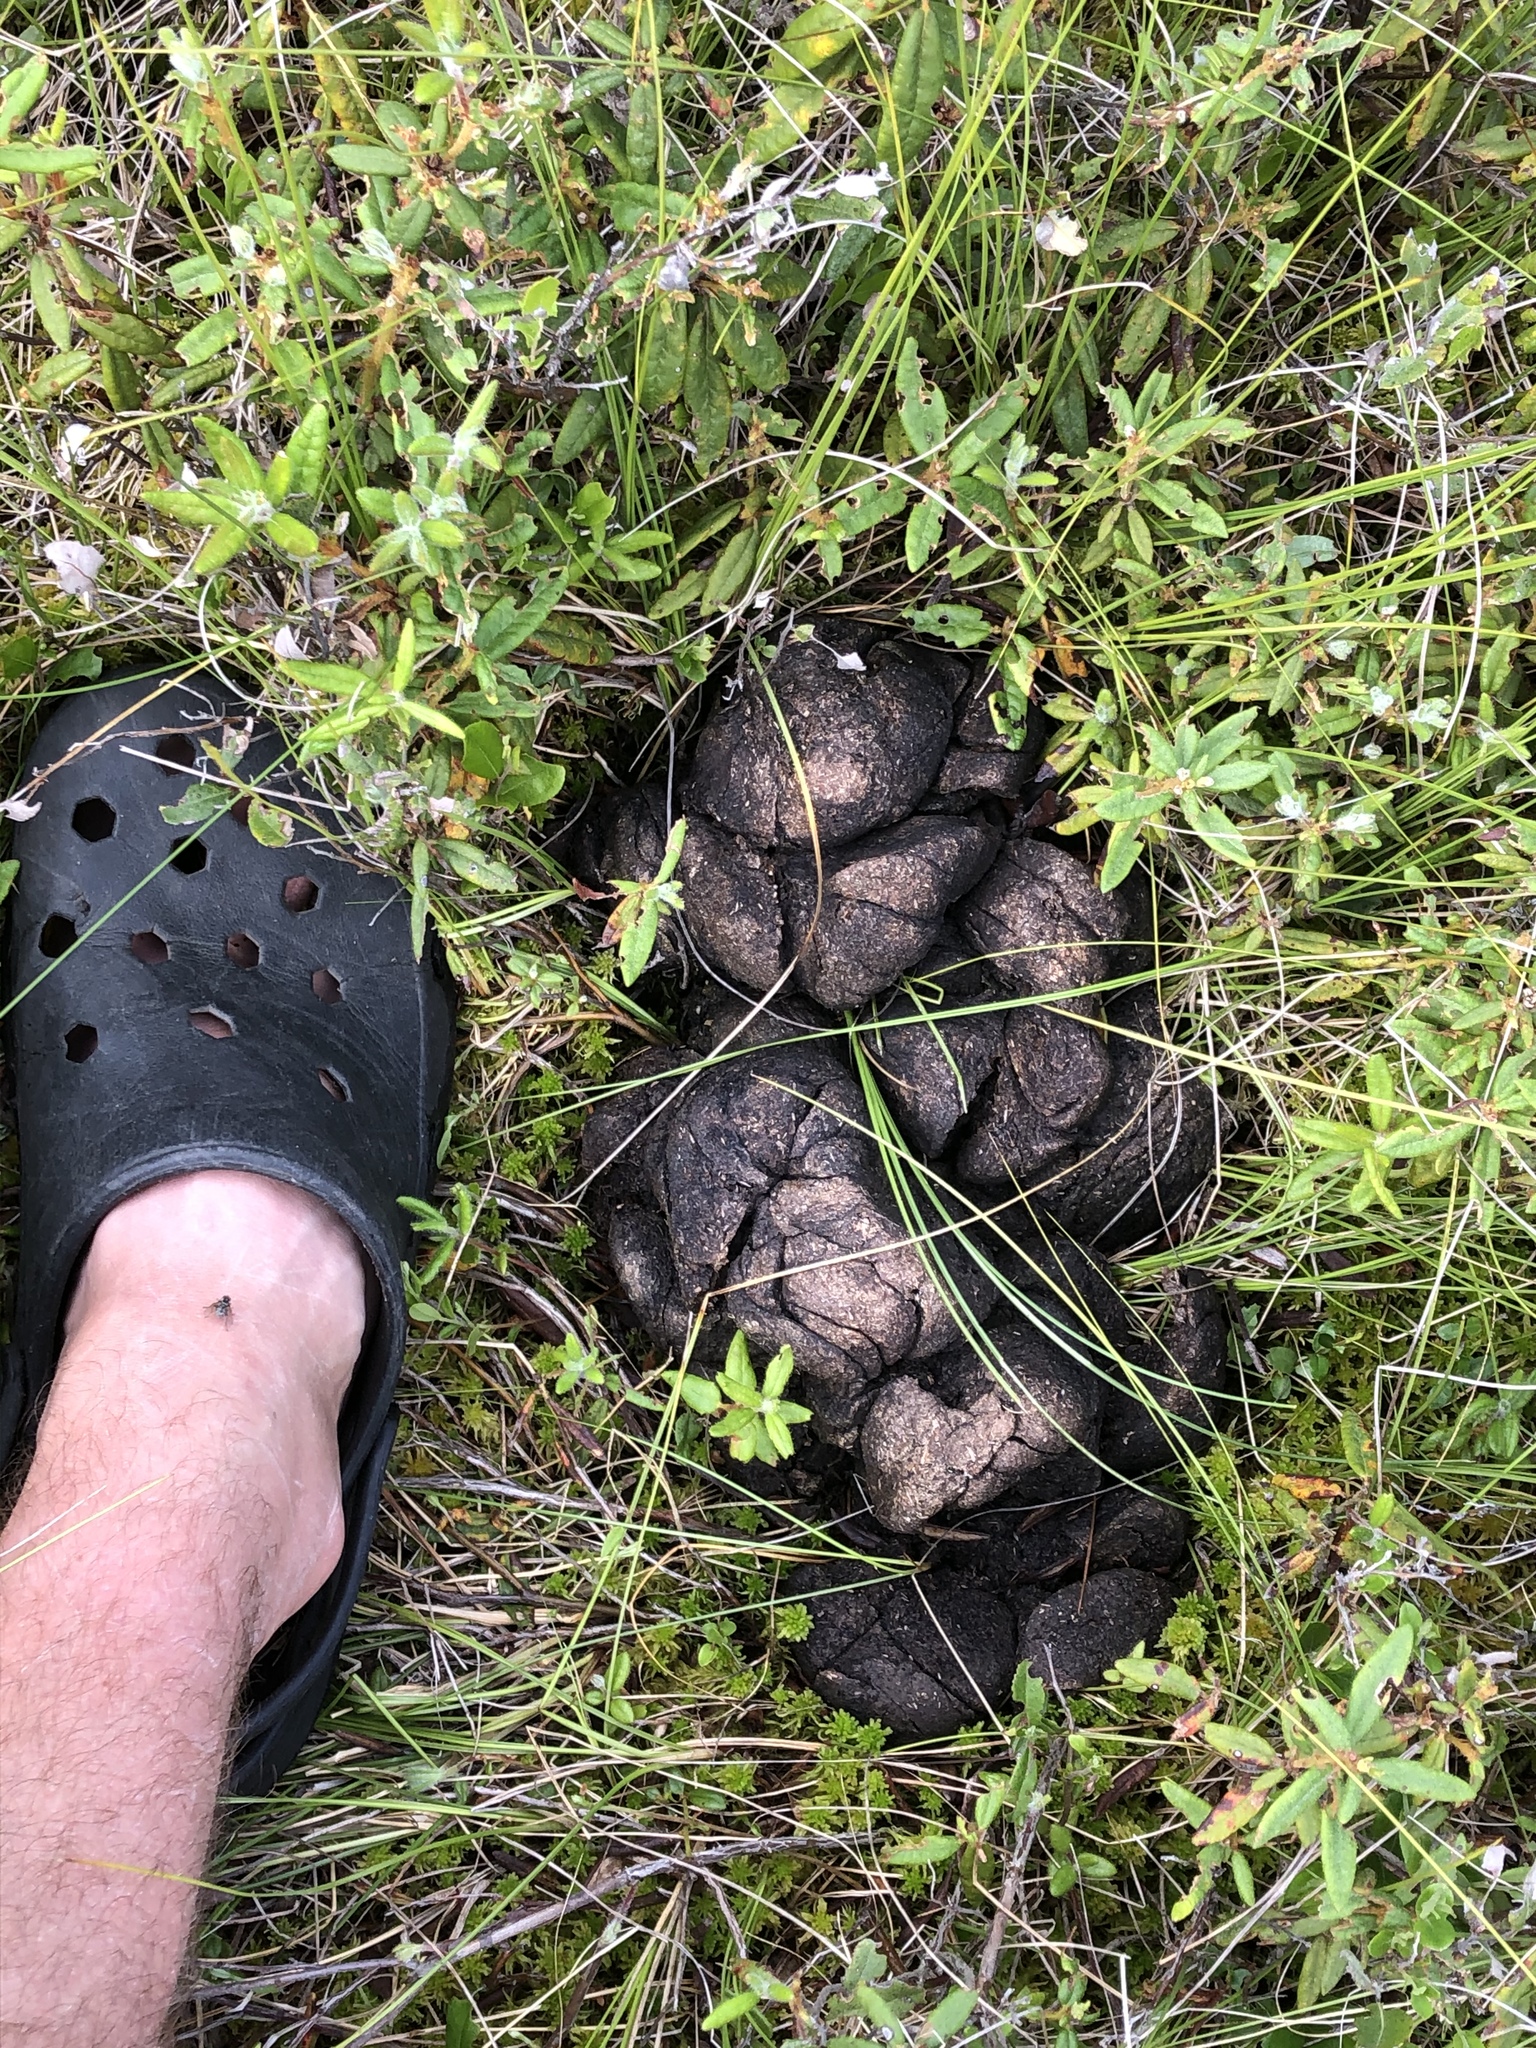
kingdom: Animalia
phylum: Chordata
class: Mammalia
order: Artiodactyla
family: Cervidae
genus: Alces
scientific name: Alces alces
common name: Moose
